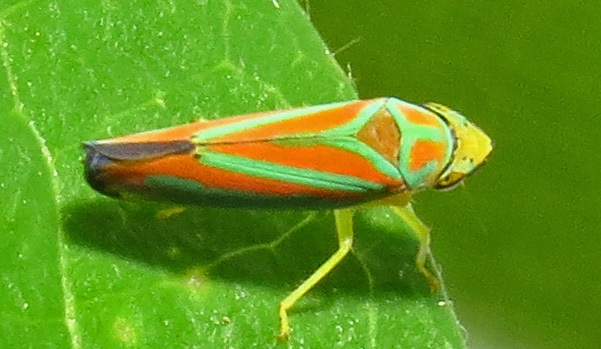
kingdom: Animalia
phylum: Arthropoda
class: Insecta
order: Hemiptera
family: Cicadellidae
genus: Graphocephala
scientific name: Graphocephala coccinea
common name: Candy-striped leafhopper
